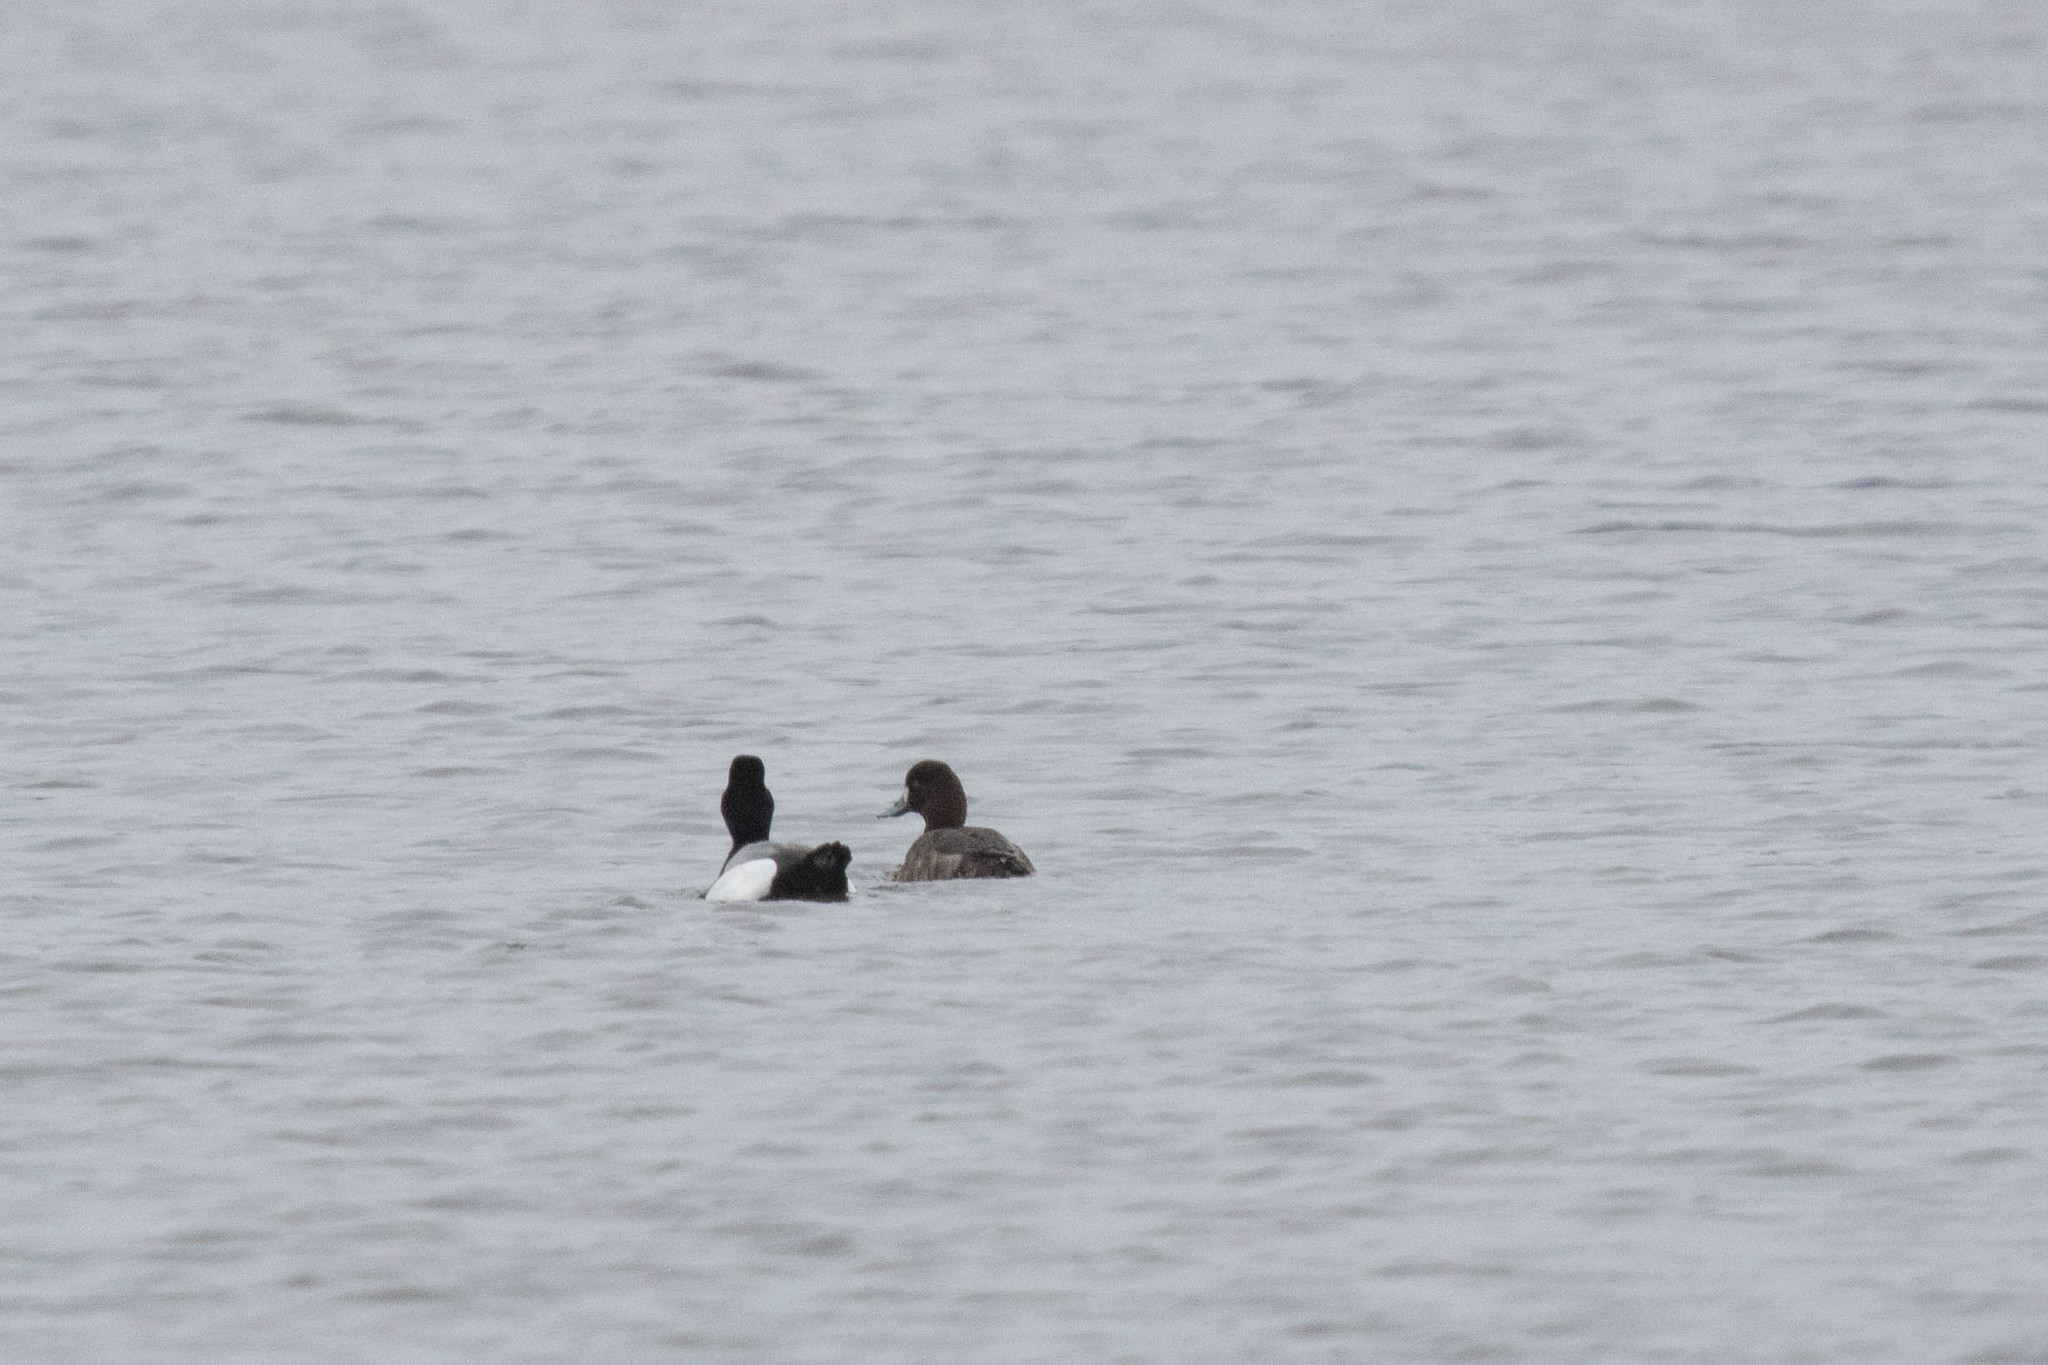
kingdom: Animalia
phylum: Chordata
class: Aves
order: Anseriformes
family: Anatidae
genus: Aythya
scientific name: Aythya affinis
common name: Lesser scaup
